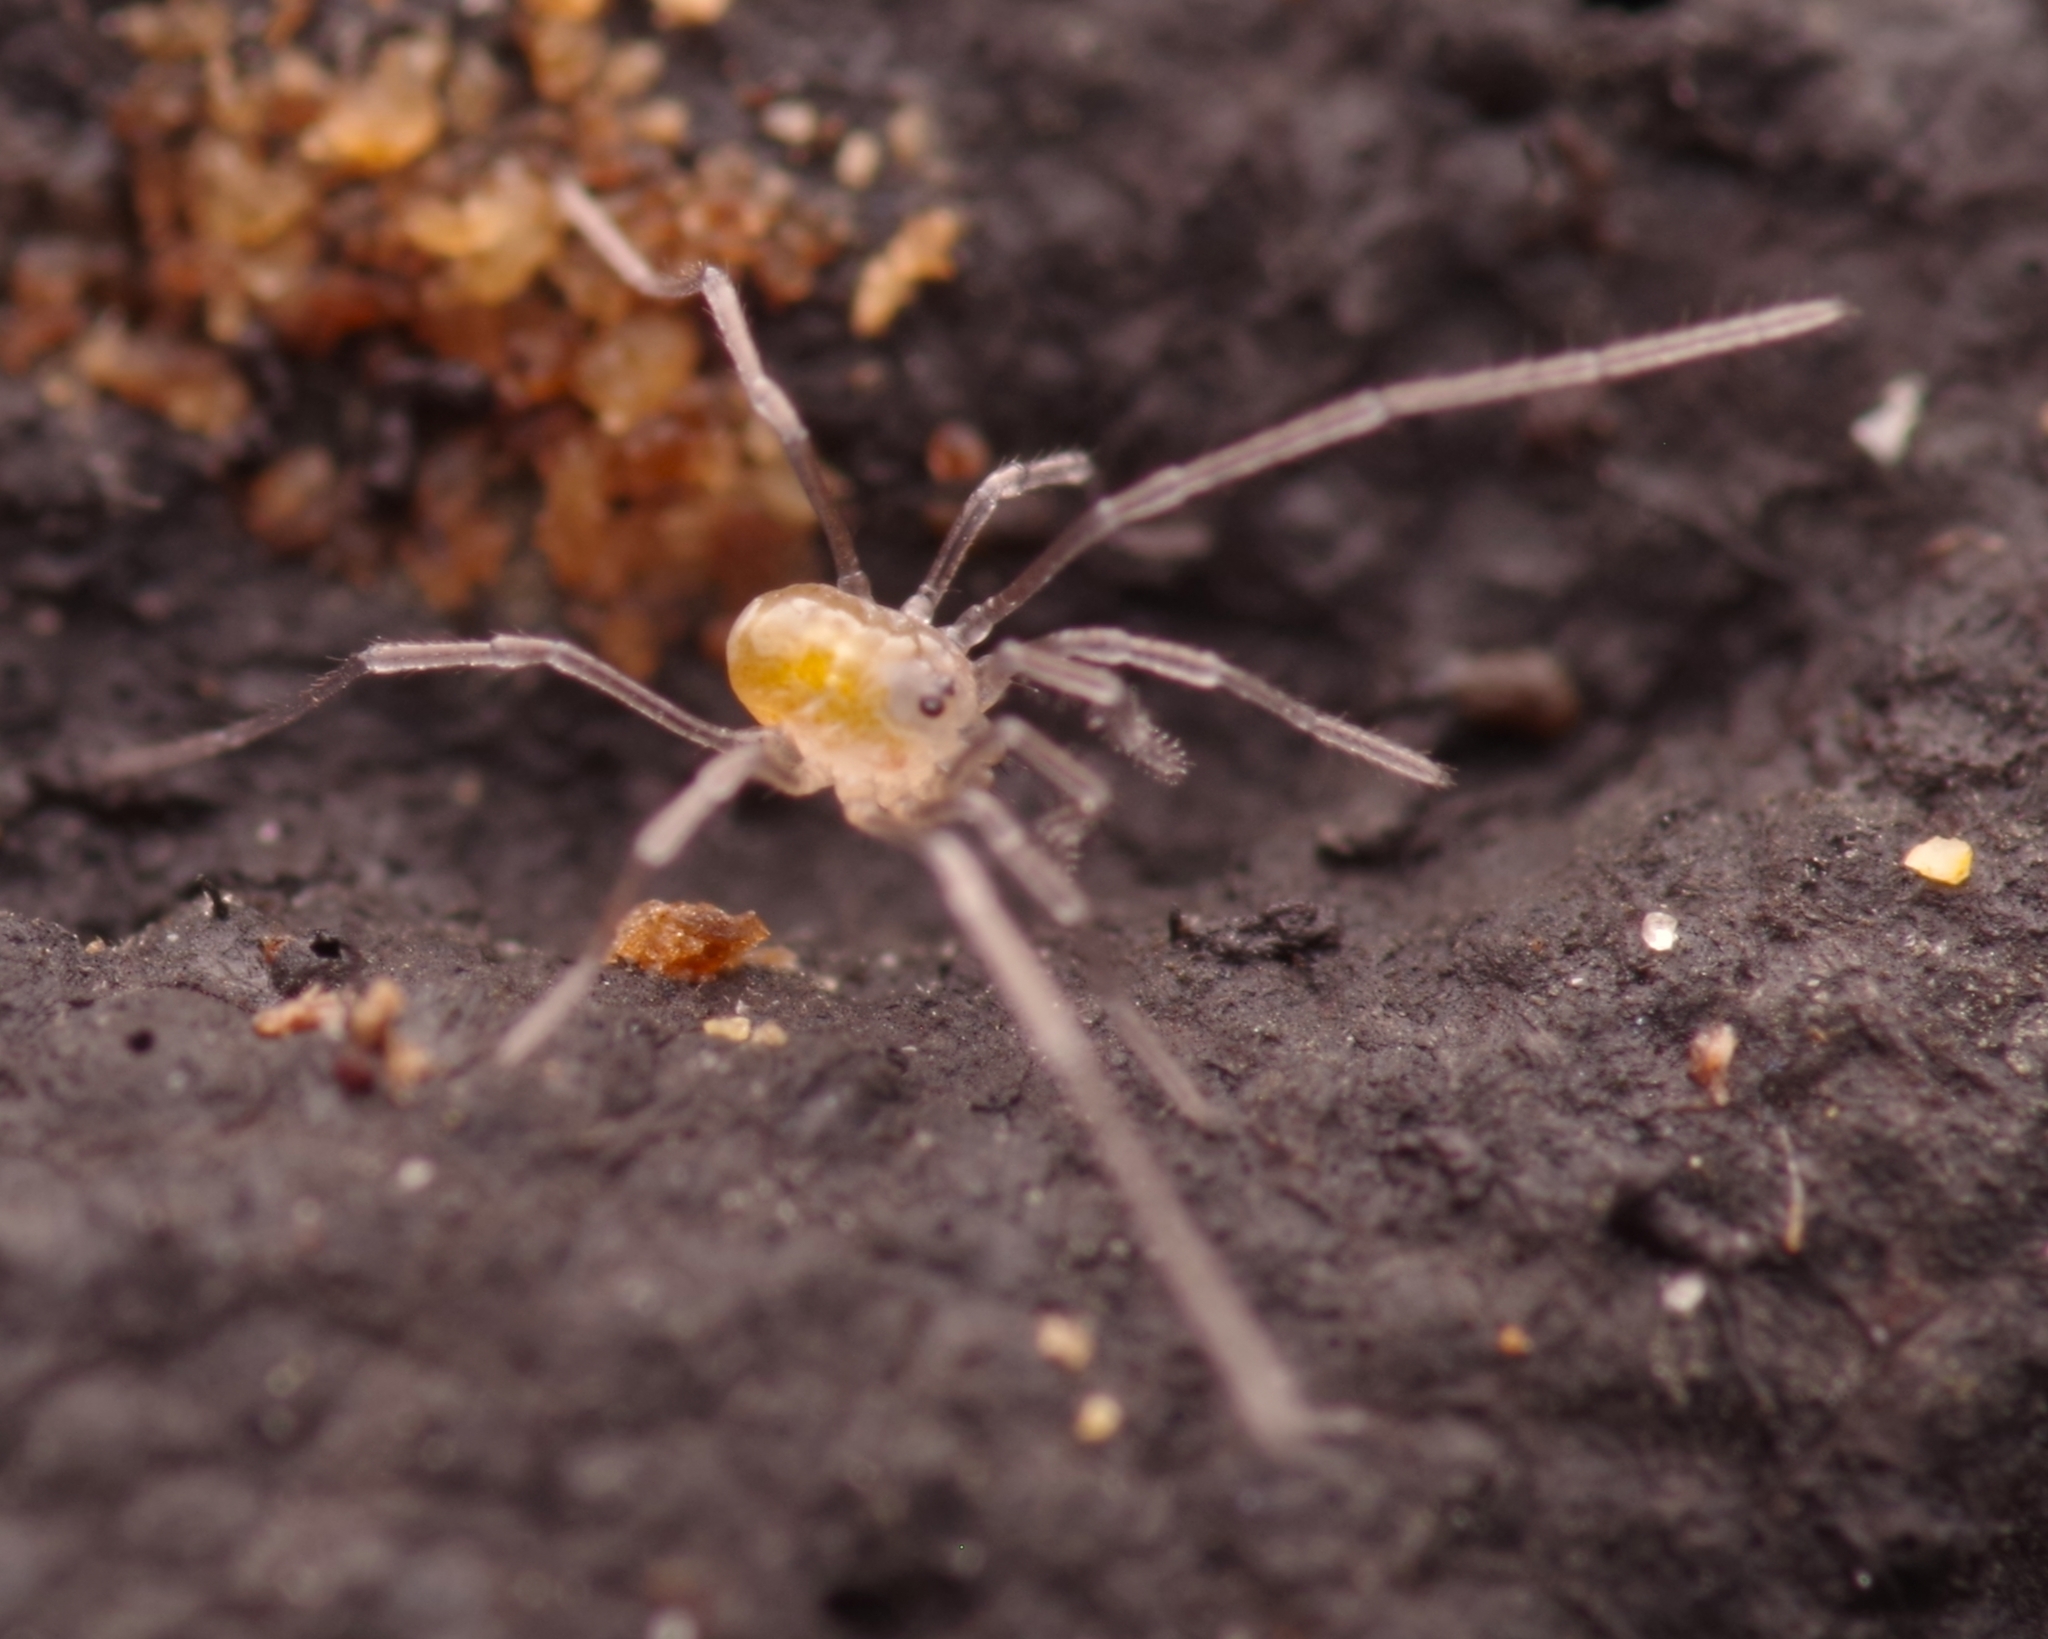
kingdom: Animalia
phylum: Arthropoda
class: Arachnida
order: Opiliones
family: Nemastomatidae
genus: Mitostoma
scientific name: Mitostoma chrysomelas
